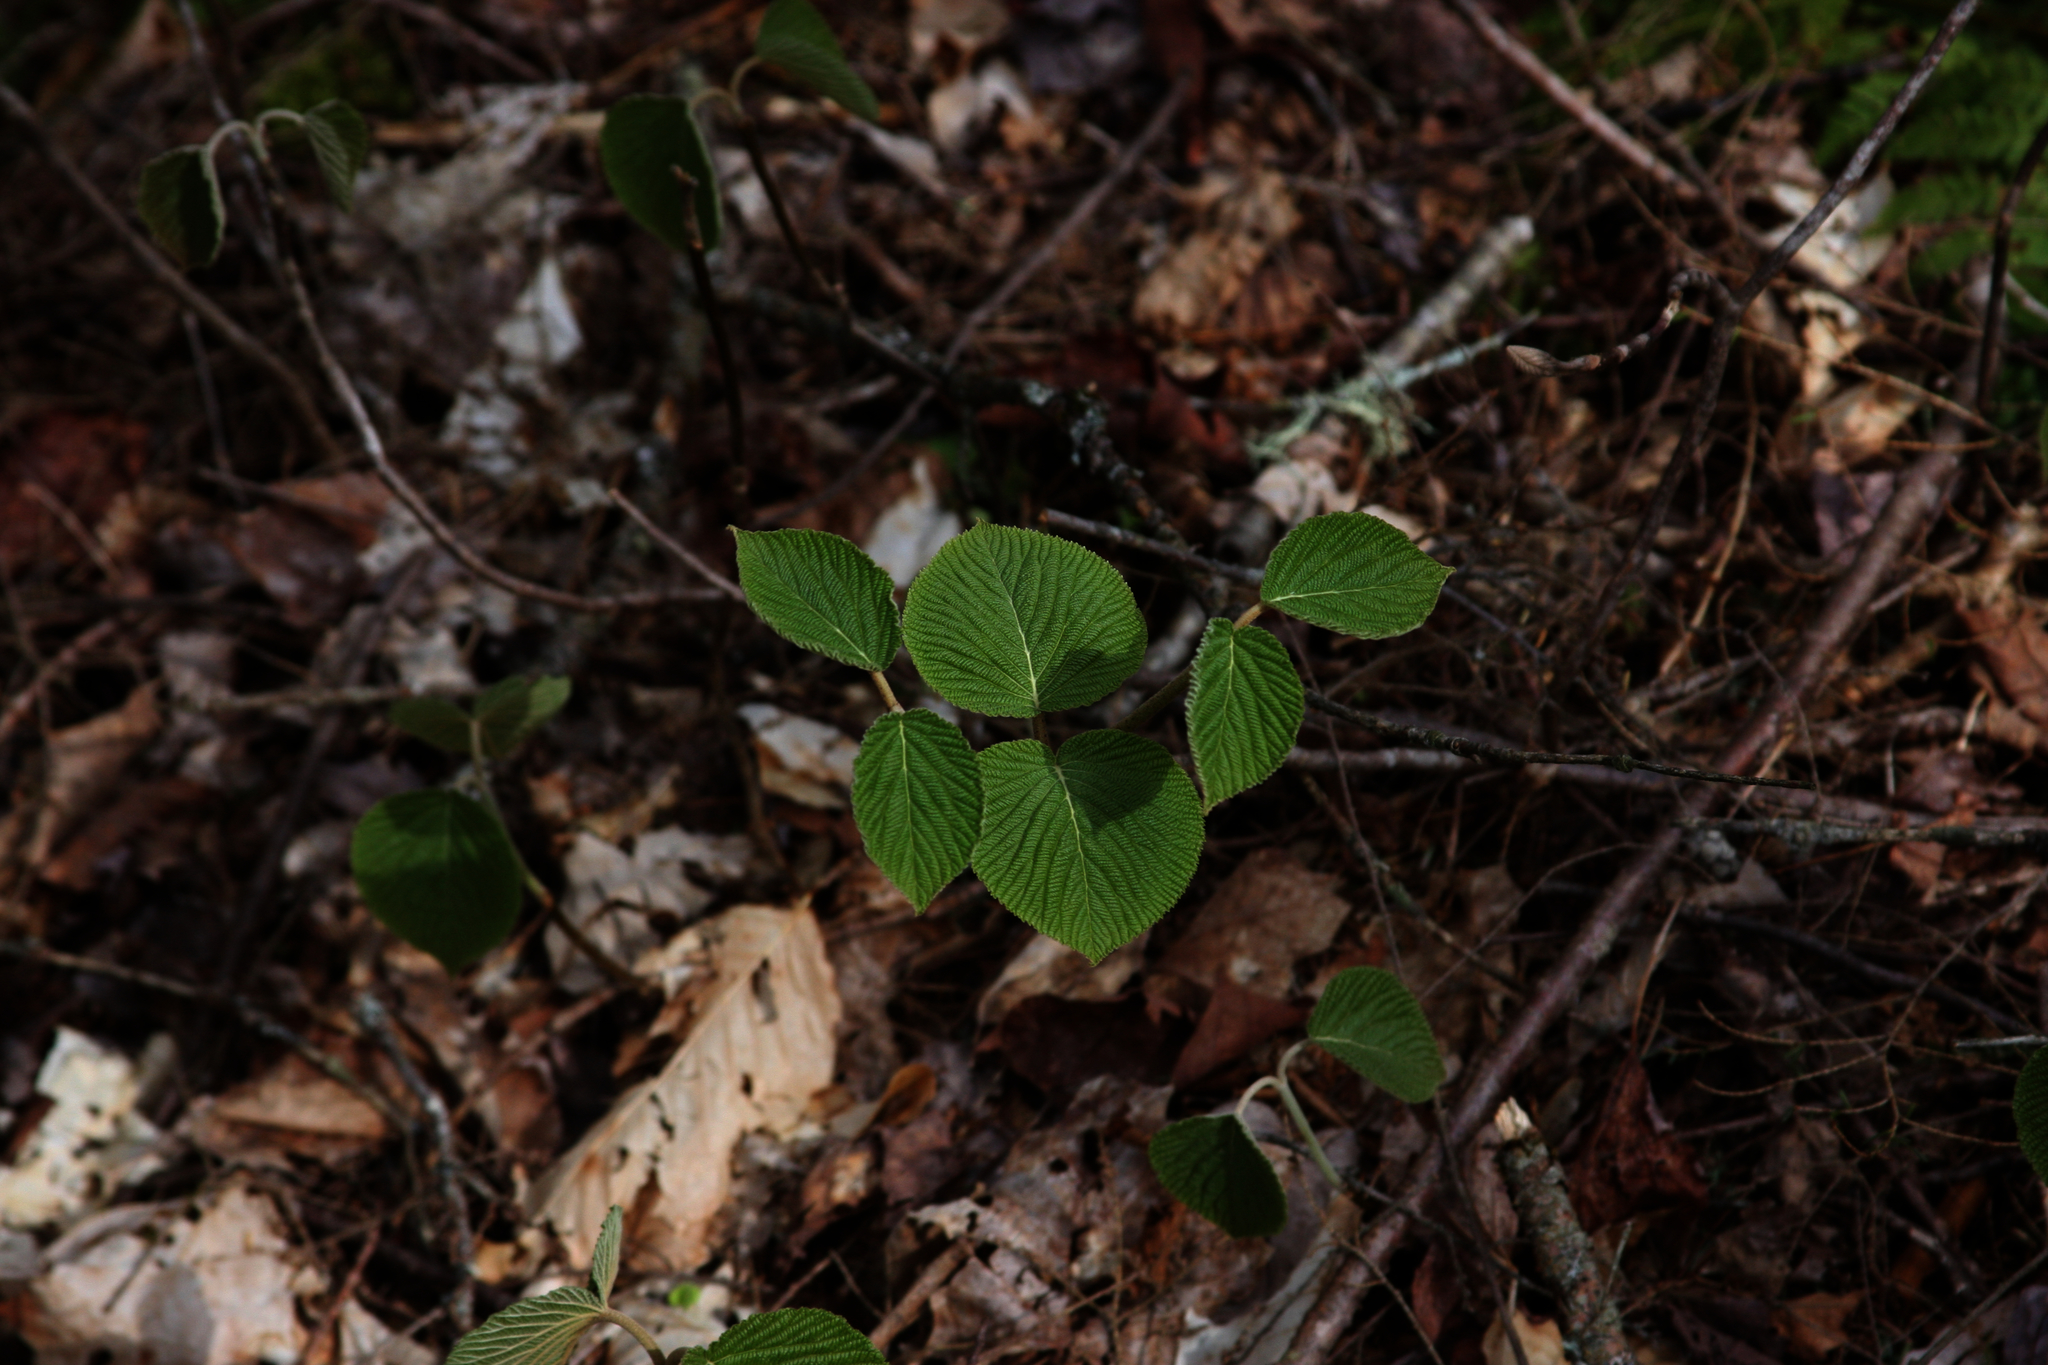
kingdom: Plantae
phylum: Tracheophyta
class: Magnoliopsida
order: Dipsacales
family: Viburnaceae
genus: Viburnum
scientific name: Viburnum lantanoides
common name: Hobblebush
